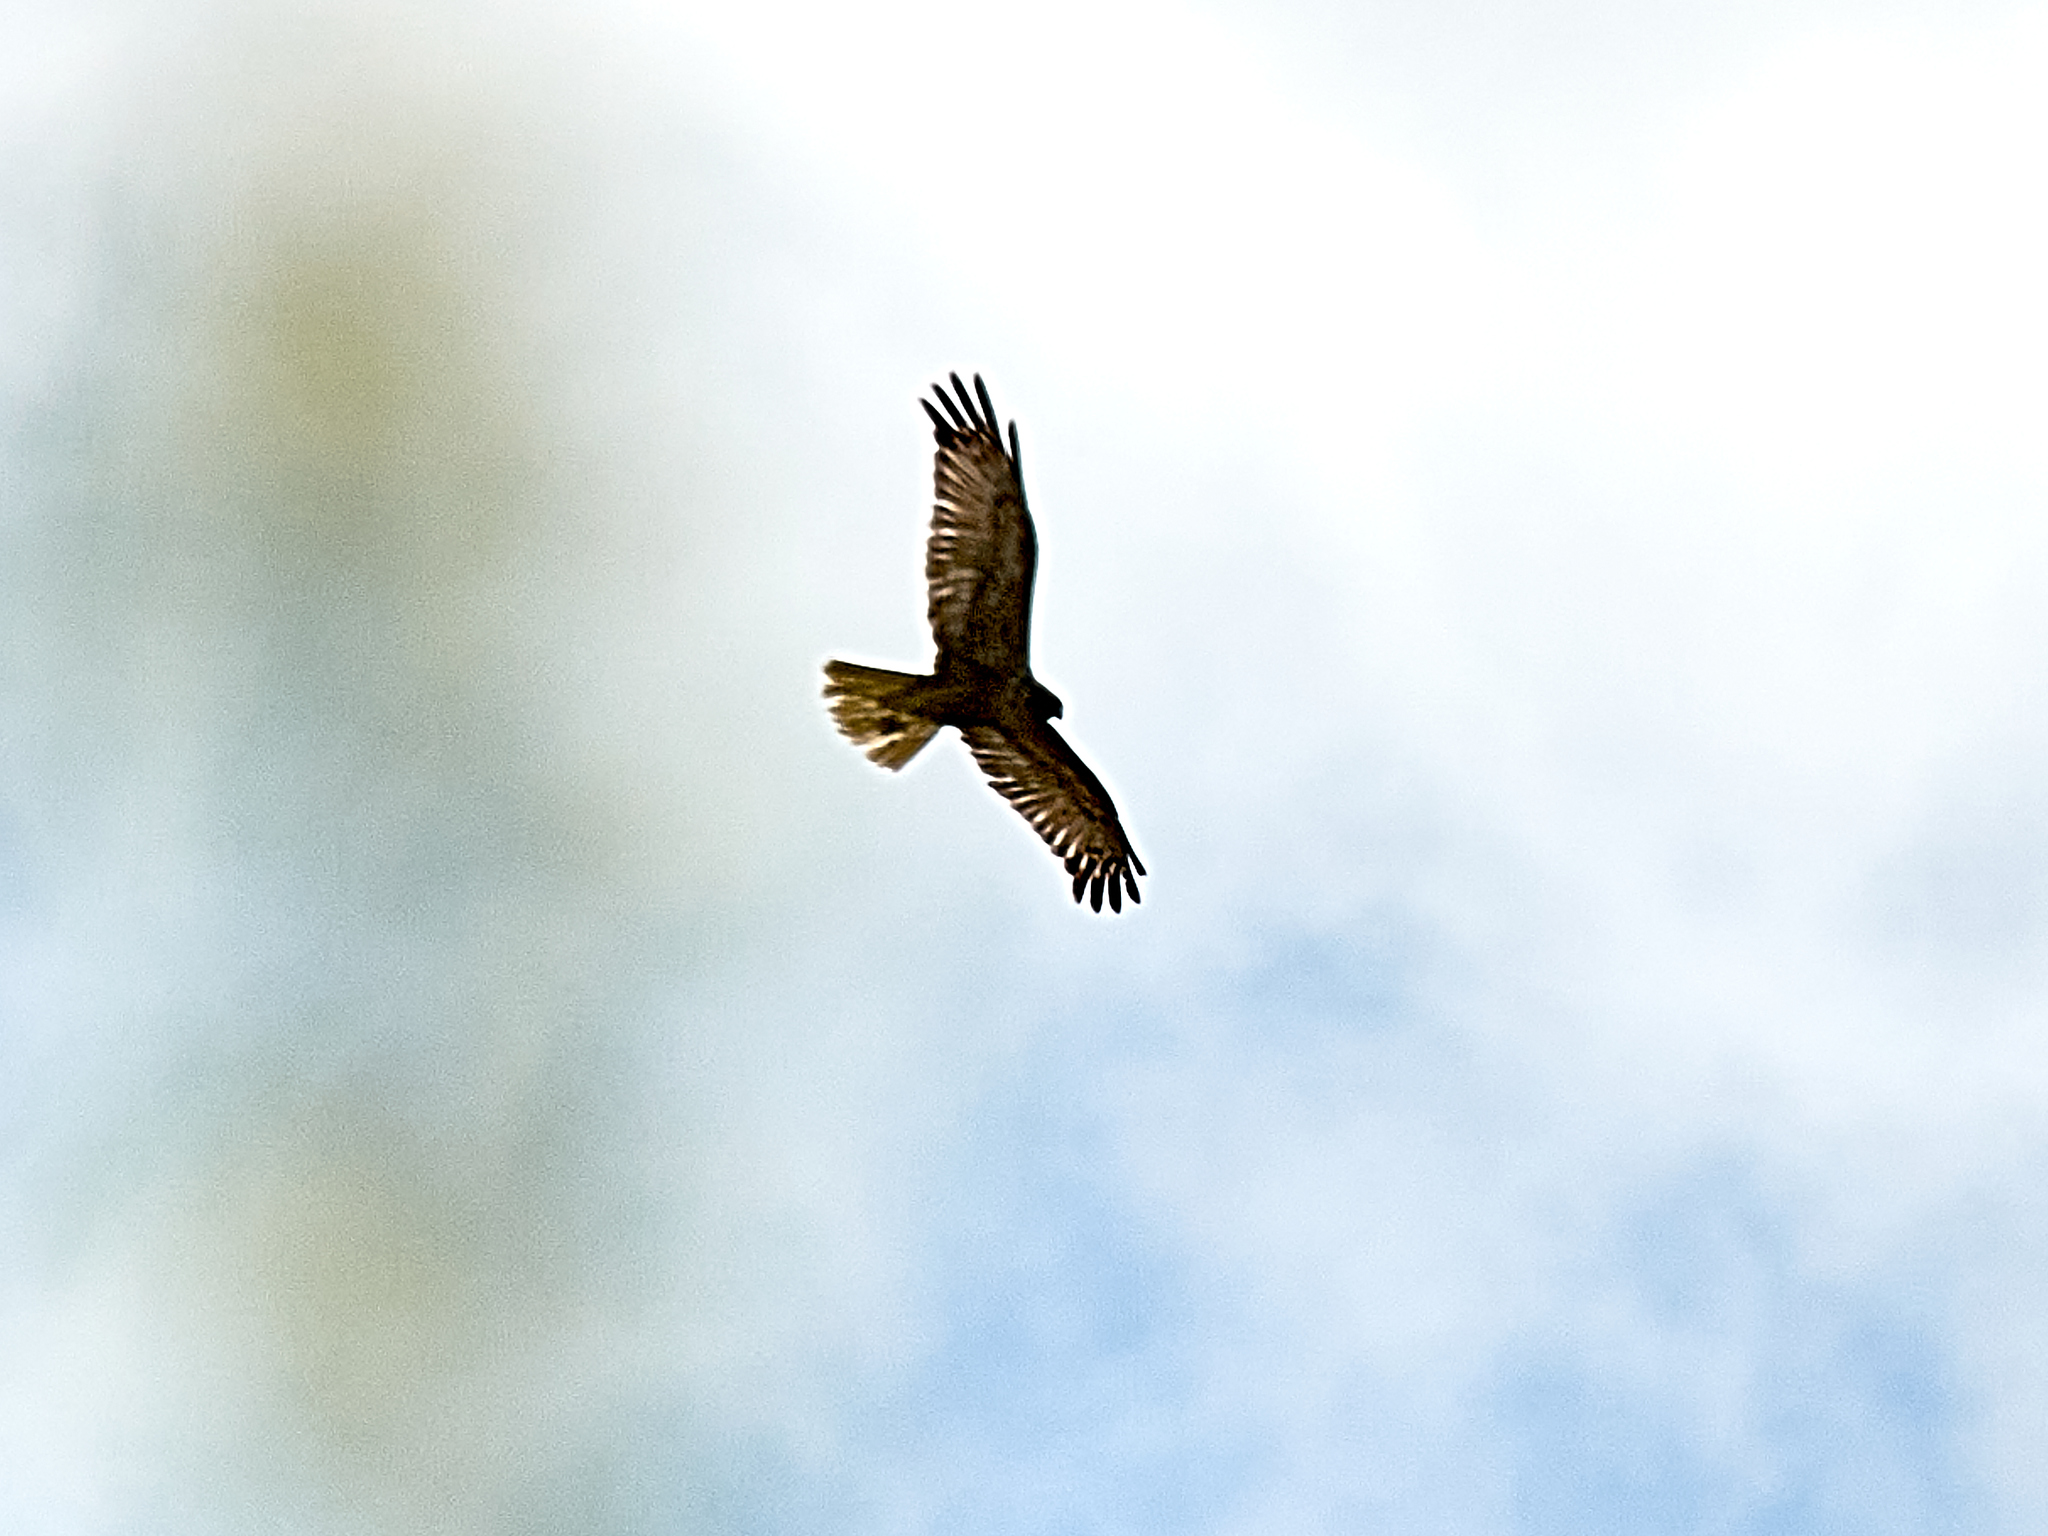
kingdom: Animalia
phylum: Chordata
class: Aves
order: Accipitriformes
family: Accipitridae
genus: Circus
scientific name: Circus aeruginosus
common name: Western marsh harrier
